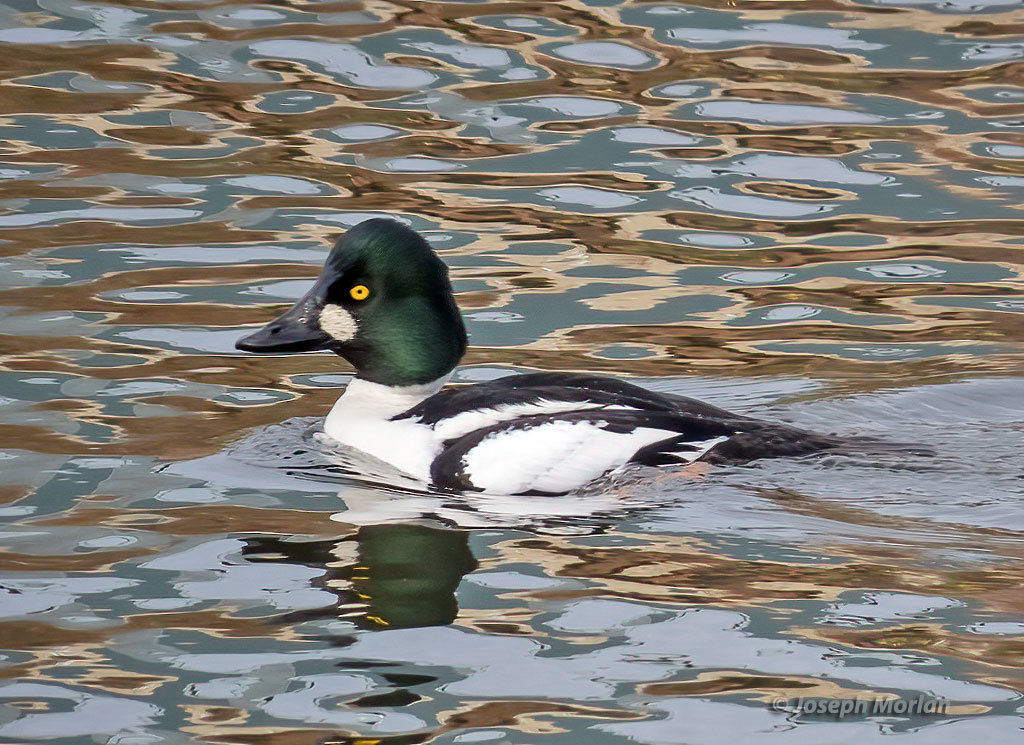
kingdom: Animalia
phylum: Chordata
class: Aves
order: Anseriformes
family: Anatidae
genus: Bucephala
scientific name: Bucephala clangula
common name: Common goldeneye
